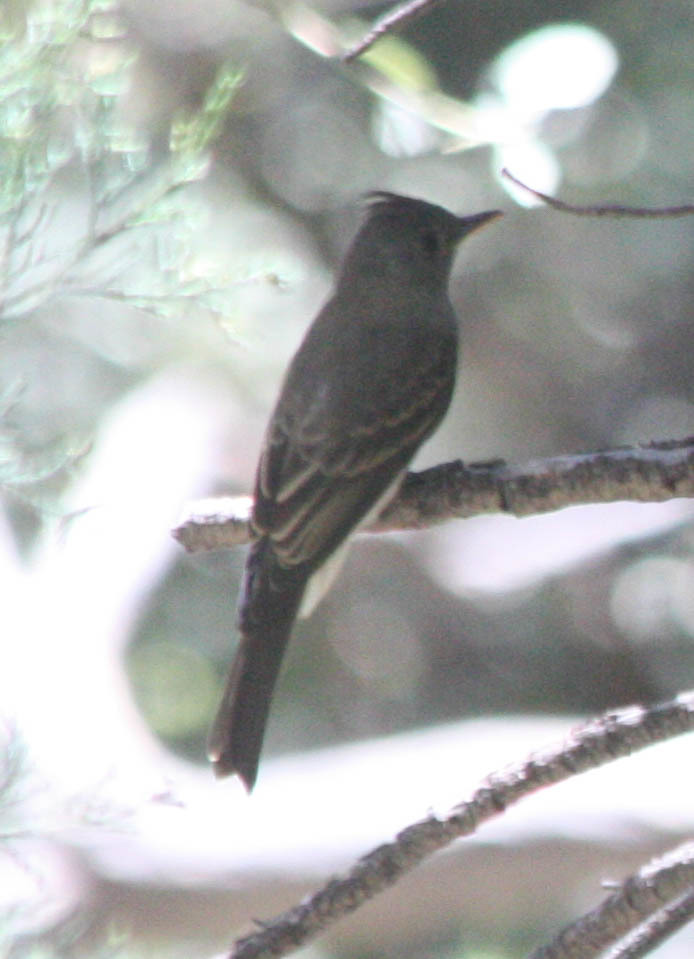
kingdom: Animalia
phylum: Chordata
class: Aves
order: Passeriformes
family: Tyrannidae
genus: Contopus
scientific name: Contopus pertinax
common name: Greater pewee
